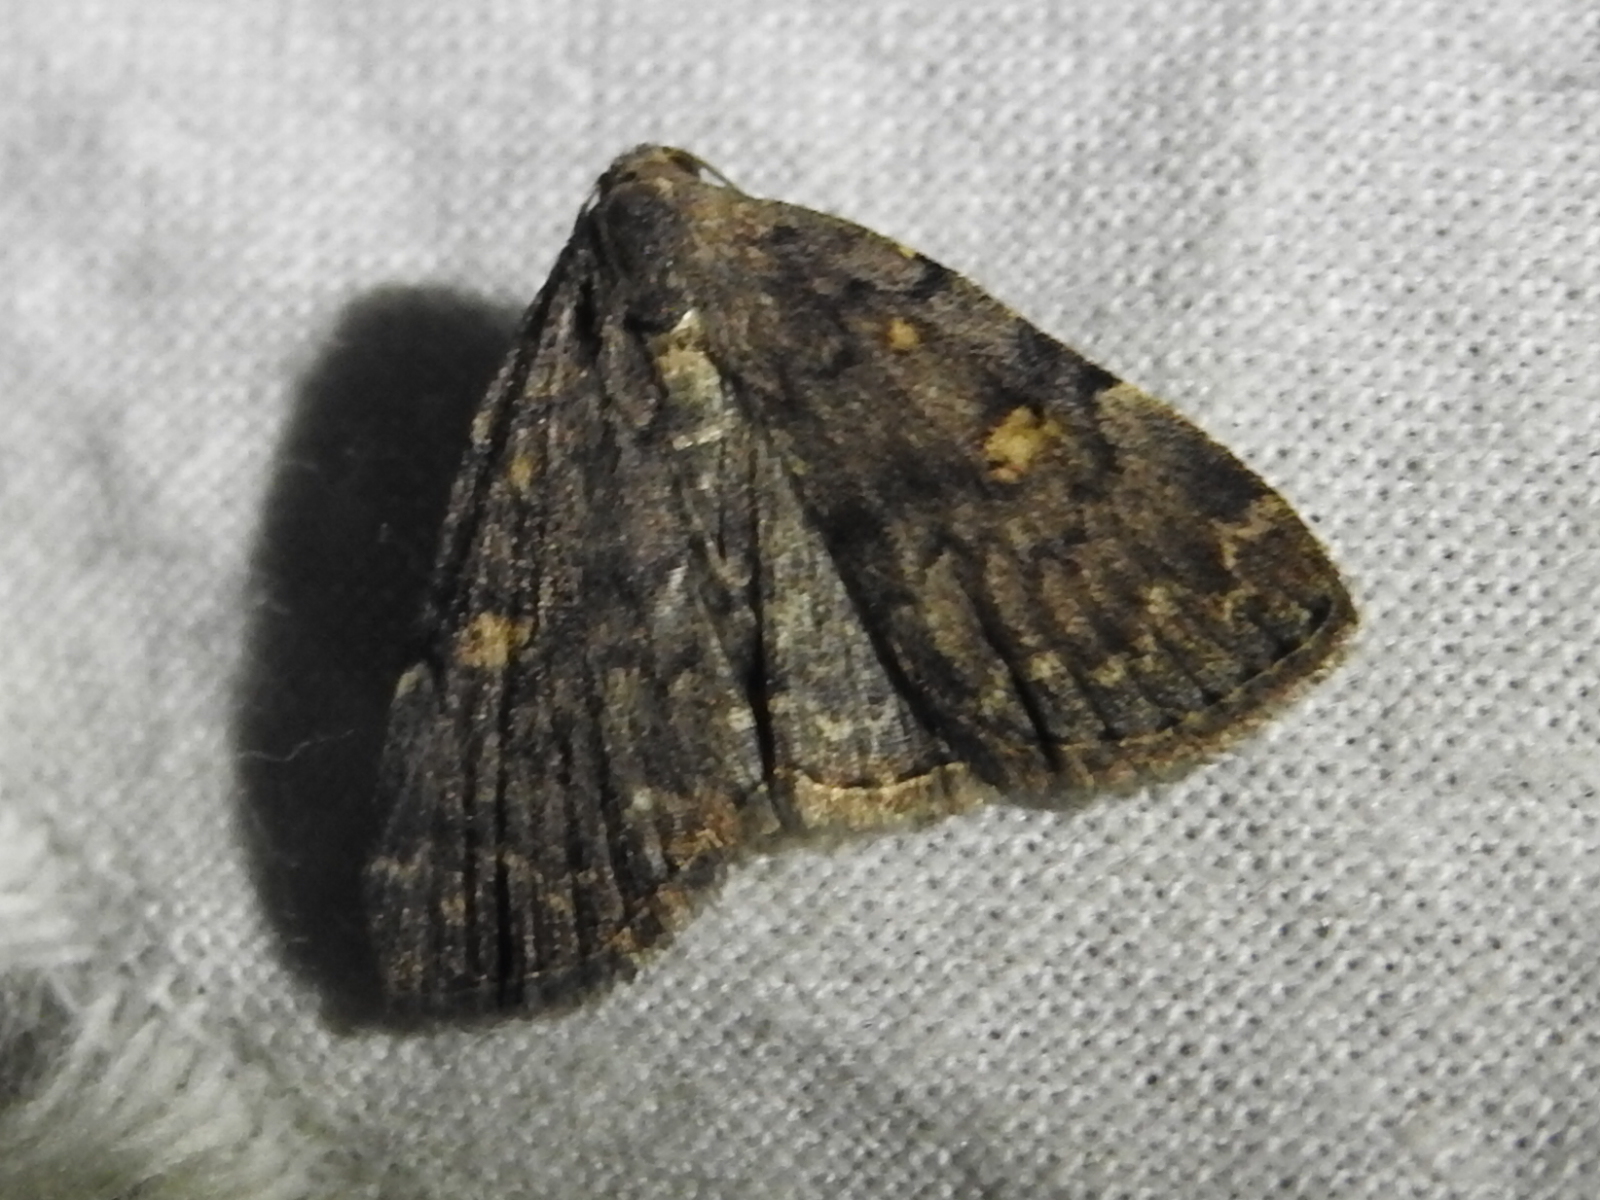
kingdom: Animalia
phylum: Arthropoda
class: Insecta
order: Lepidoptera
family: Erebidae
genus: Idia
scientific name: Idia aemula
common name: Common idia moth
